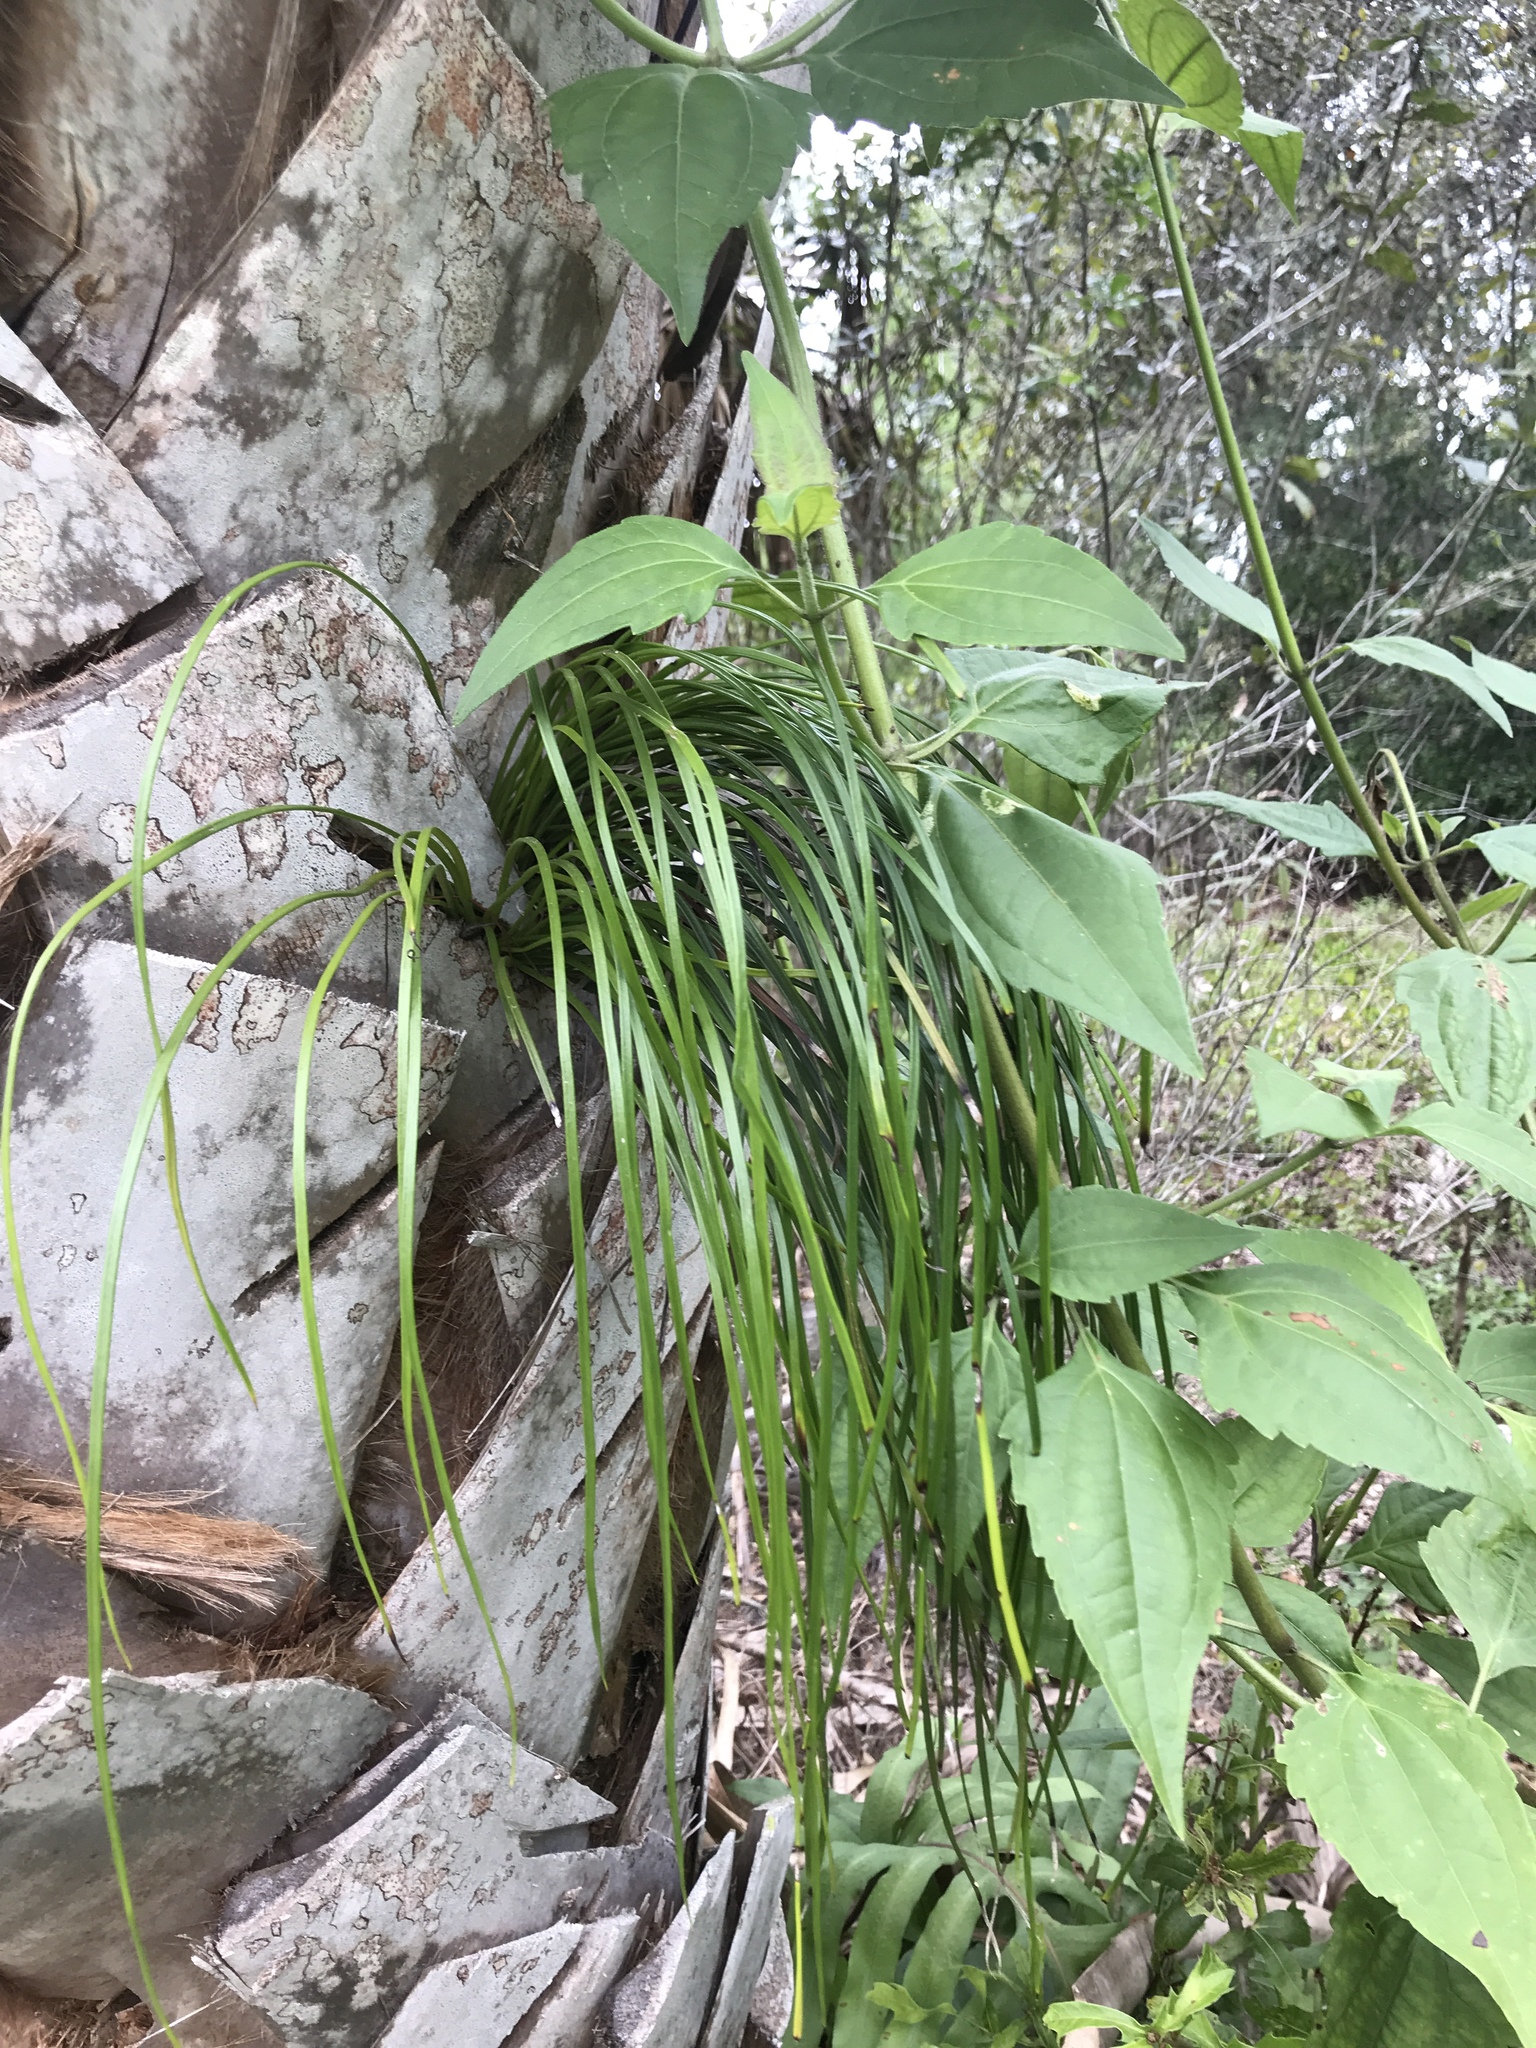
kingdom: Plantae
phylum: Tracheophyta
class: Polypodiopsida
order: Polypodiales
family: Pteridaceae
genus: Vittaria
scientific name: Vittaria lineata
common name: Shoestring fern
